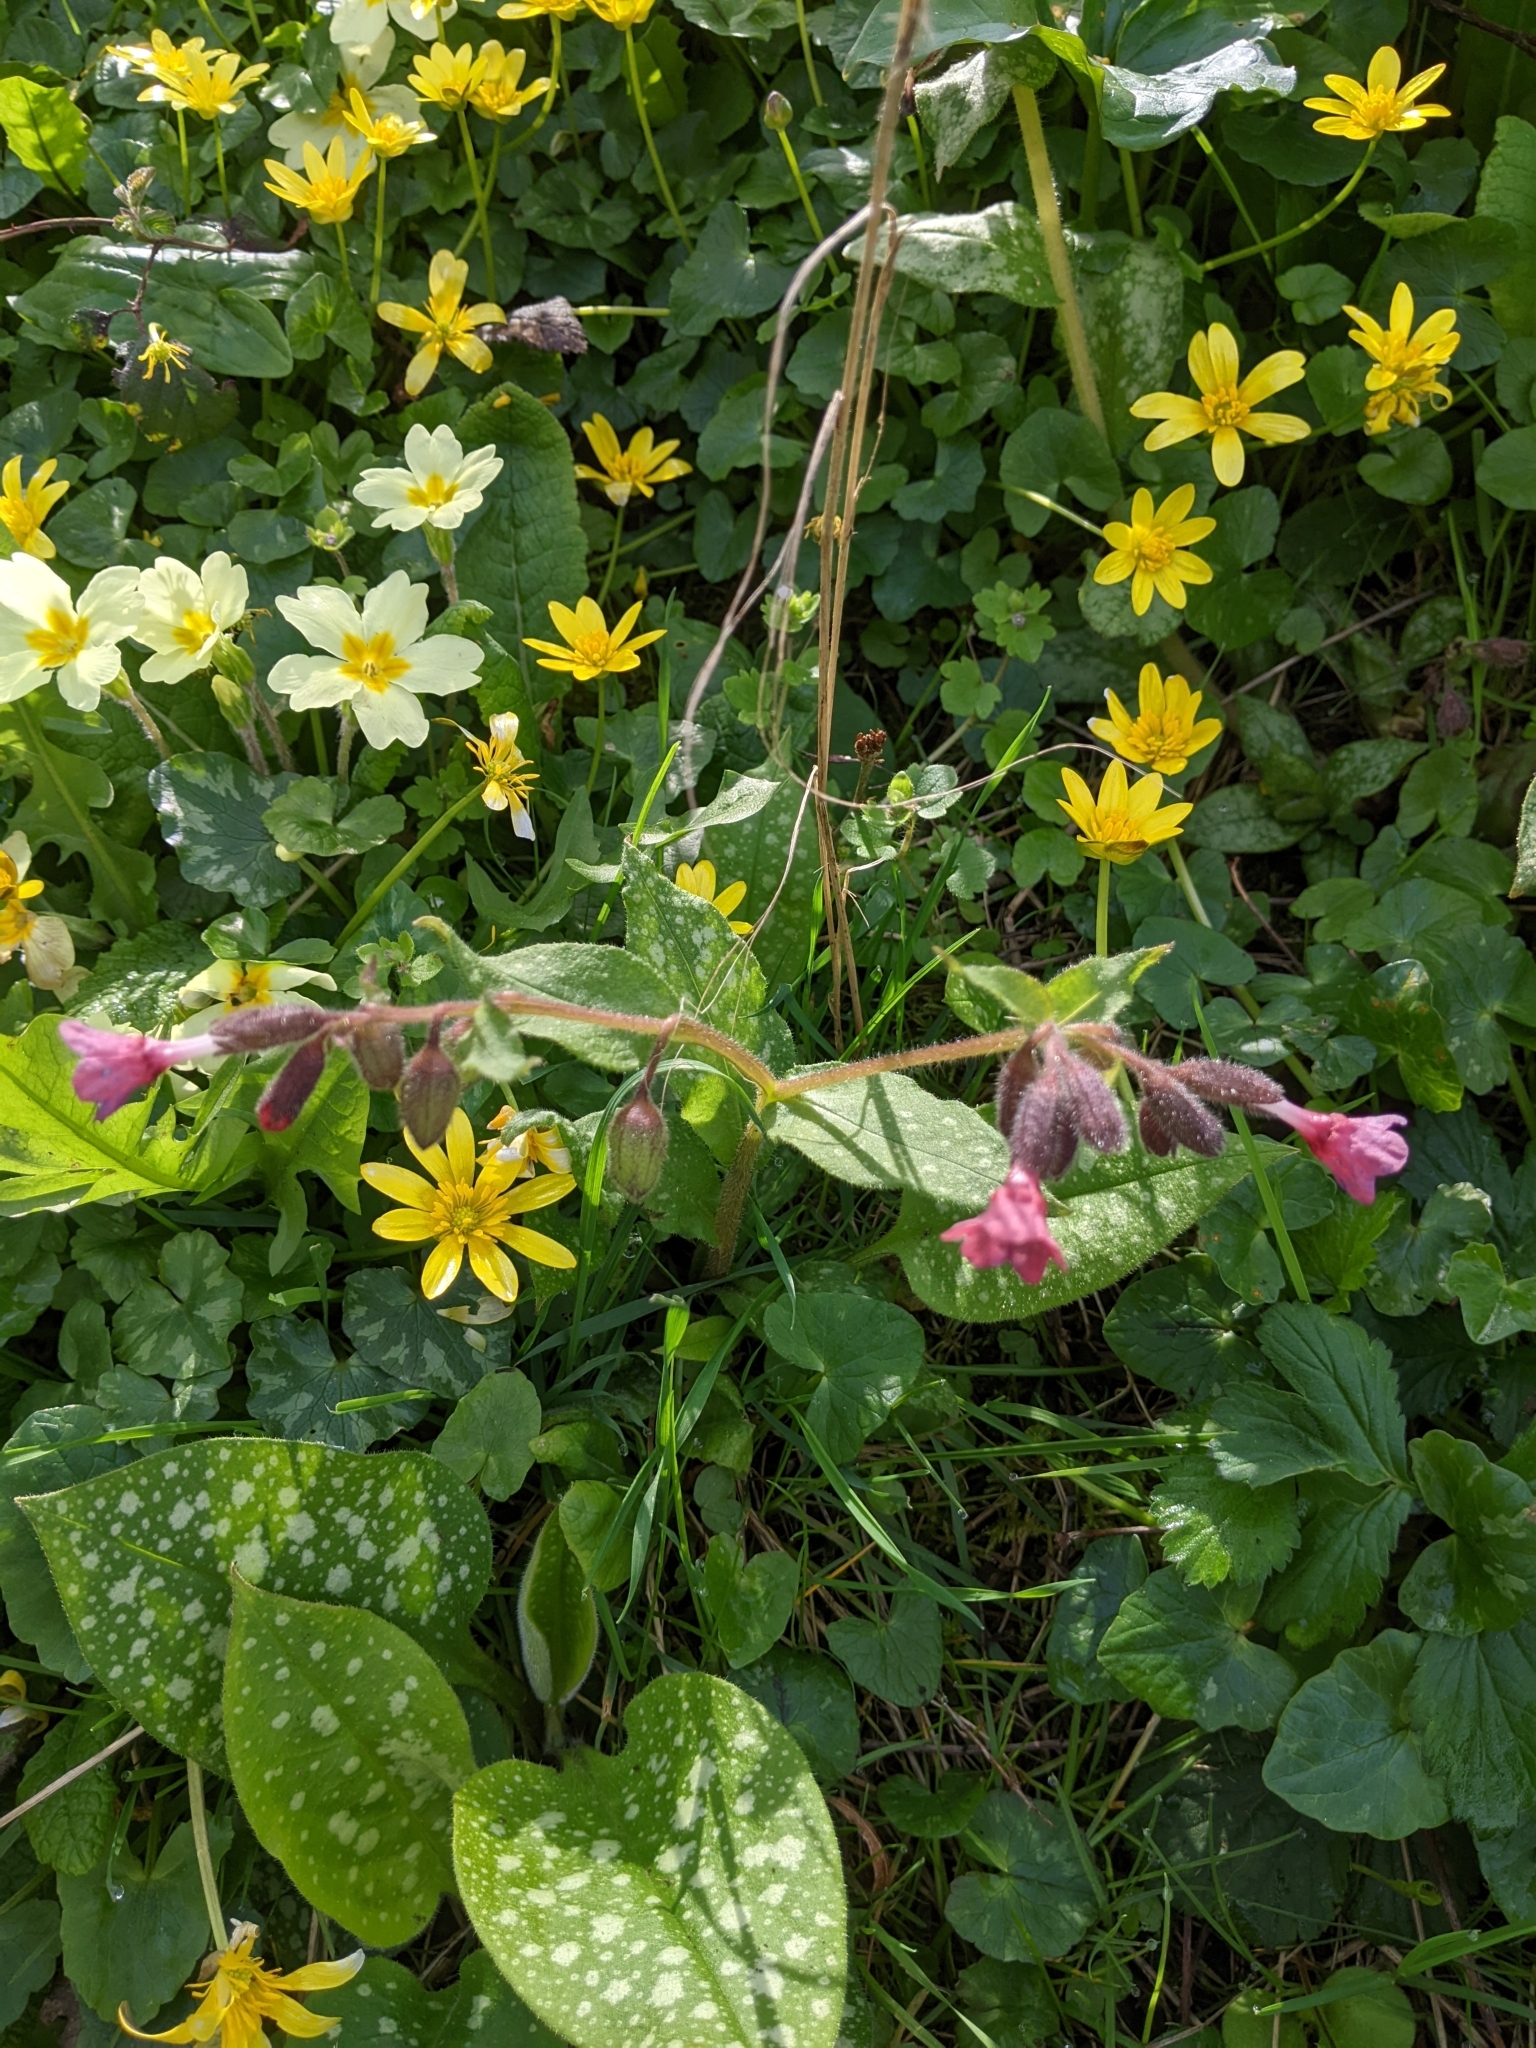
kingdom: Plantae
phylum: Tracheophyta
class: Magnoliopsida
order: Boraginales
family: Boraginaceae
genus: Pulmonaria
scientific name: Pulmonaria officinalis
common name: Lungwort
